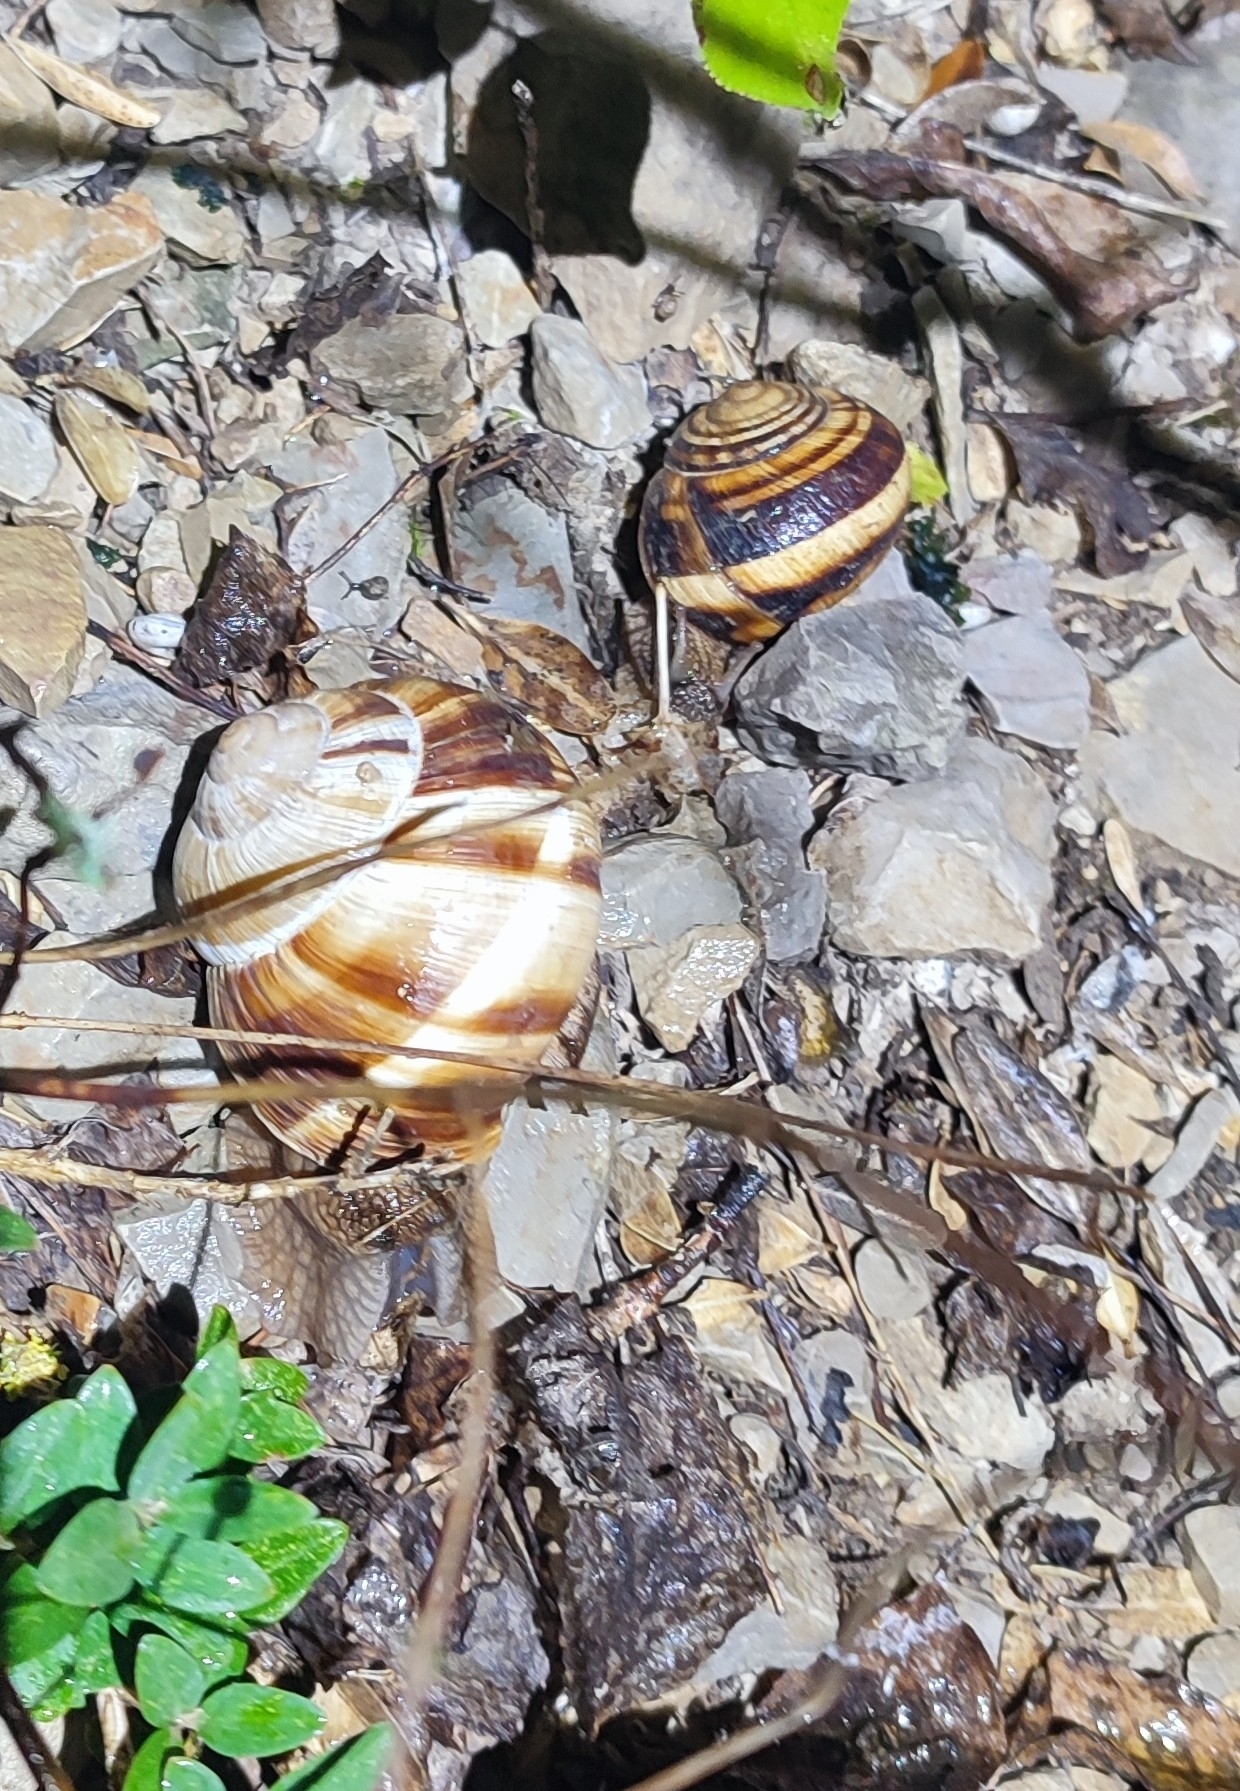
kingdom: Animalia
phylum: Mollusca
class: Gastropoda
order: Stylommatophora
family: Helicidae
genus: Helix
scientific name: Helix lucorum
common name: Turkish snail
